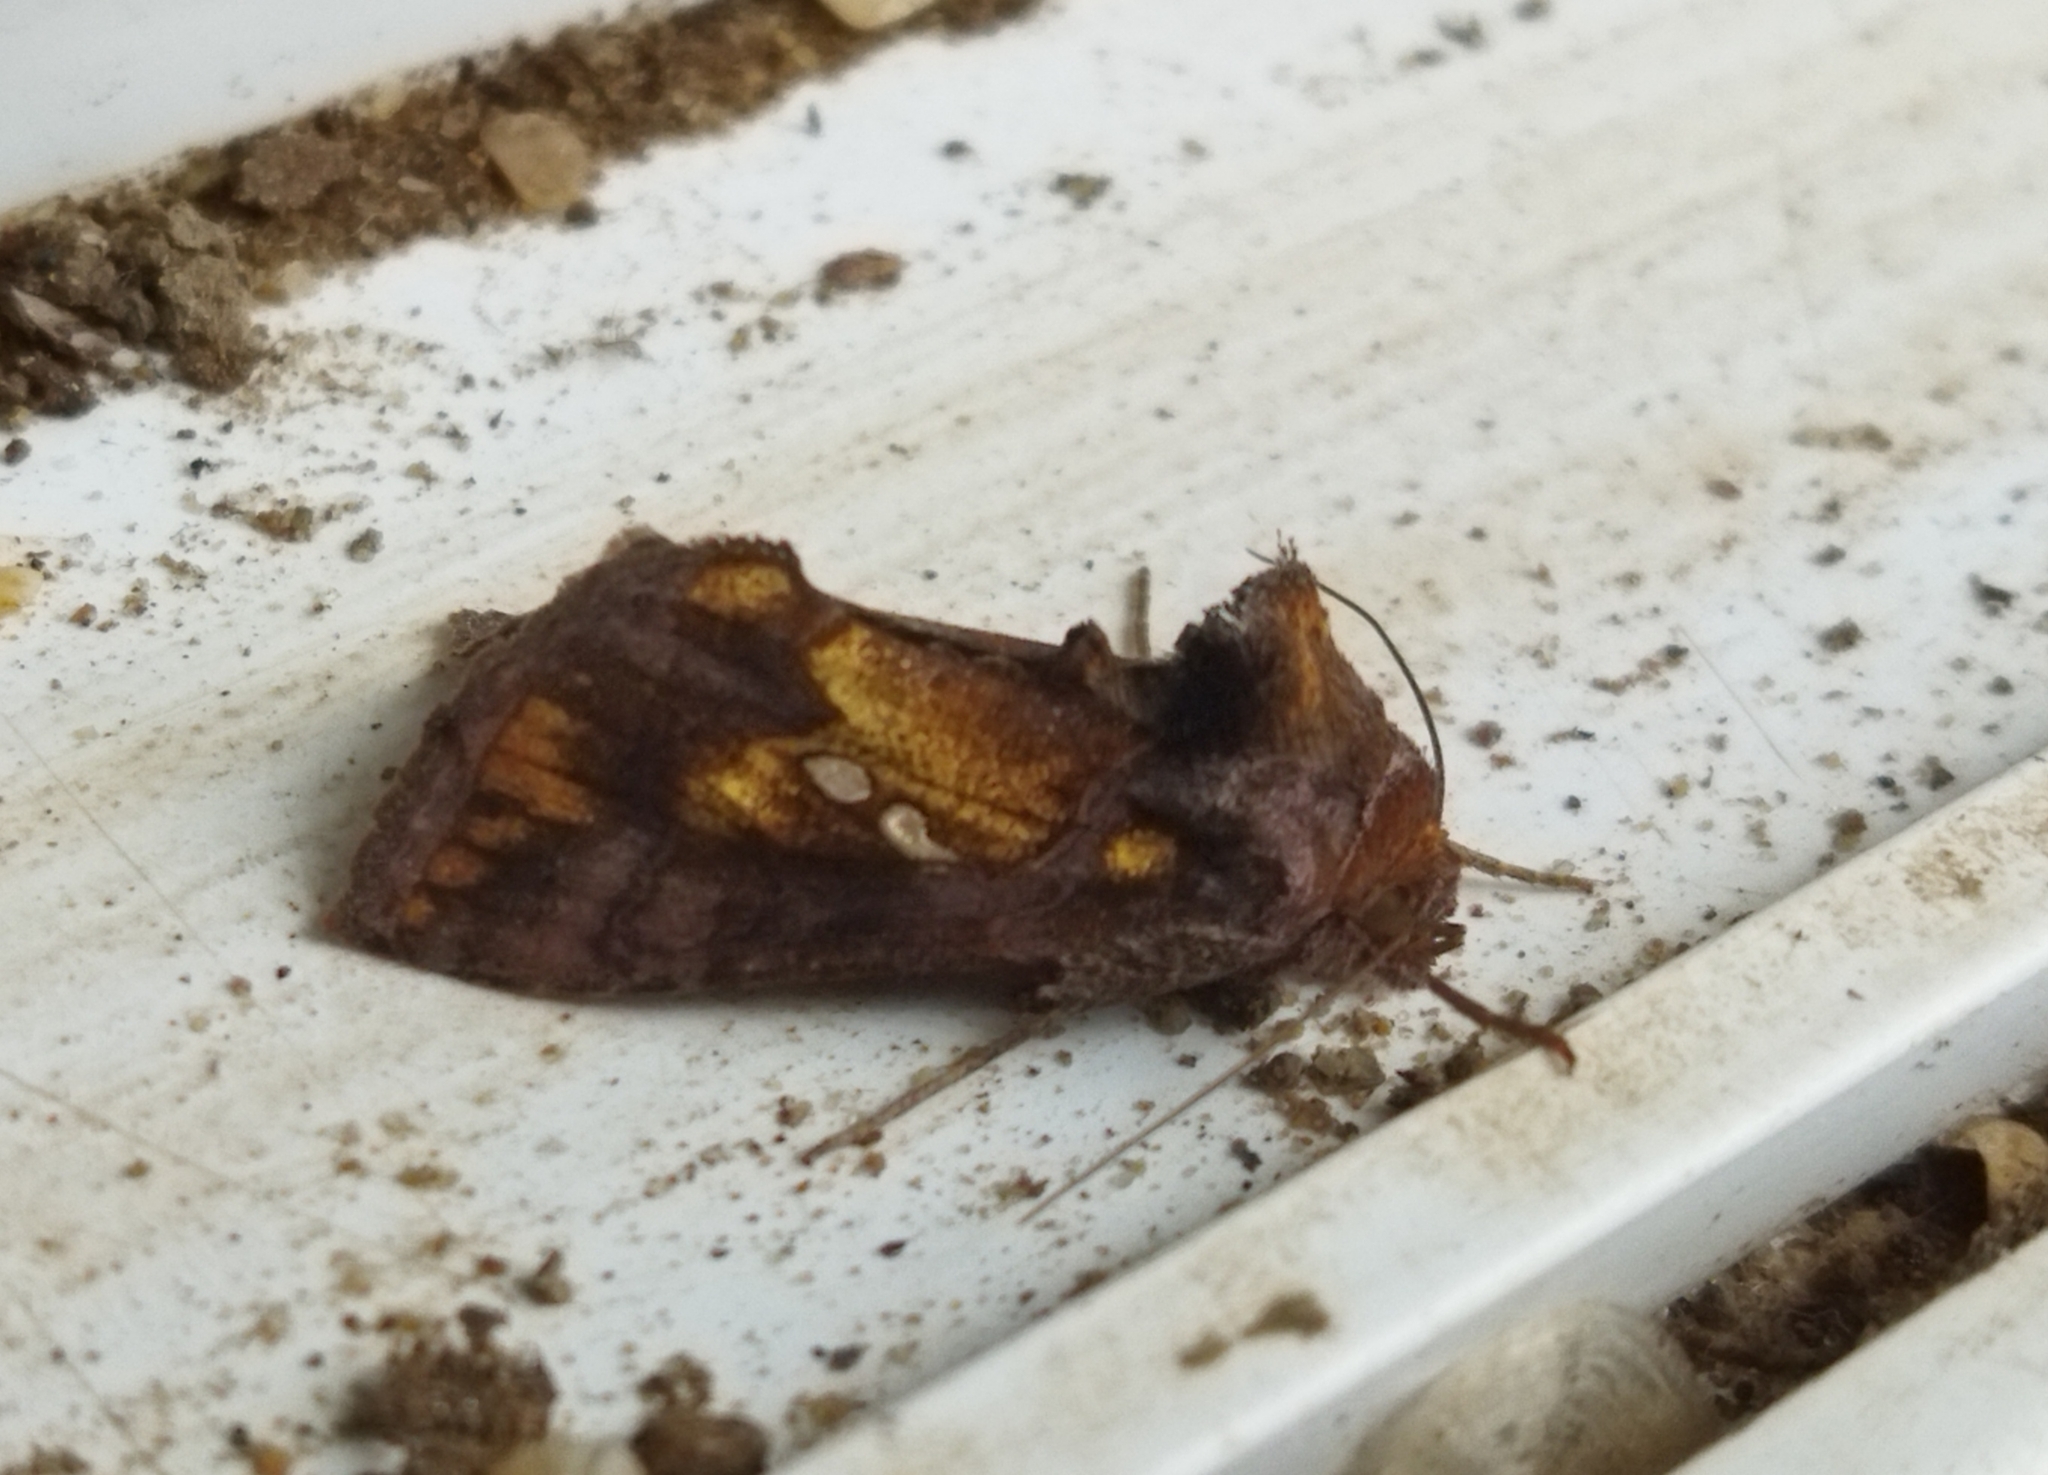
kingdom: Animalia
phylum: Arthropoda
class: Insecta
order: Lepidoptera
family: Noctuidae
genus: Chrysodeixis
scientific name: Chrysodeixis chalcites
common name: Golden twin-spot
